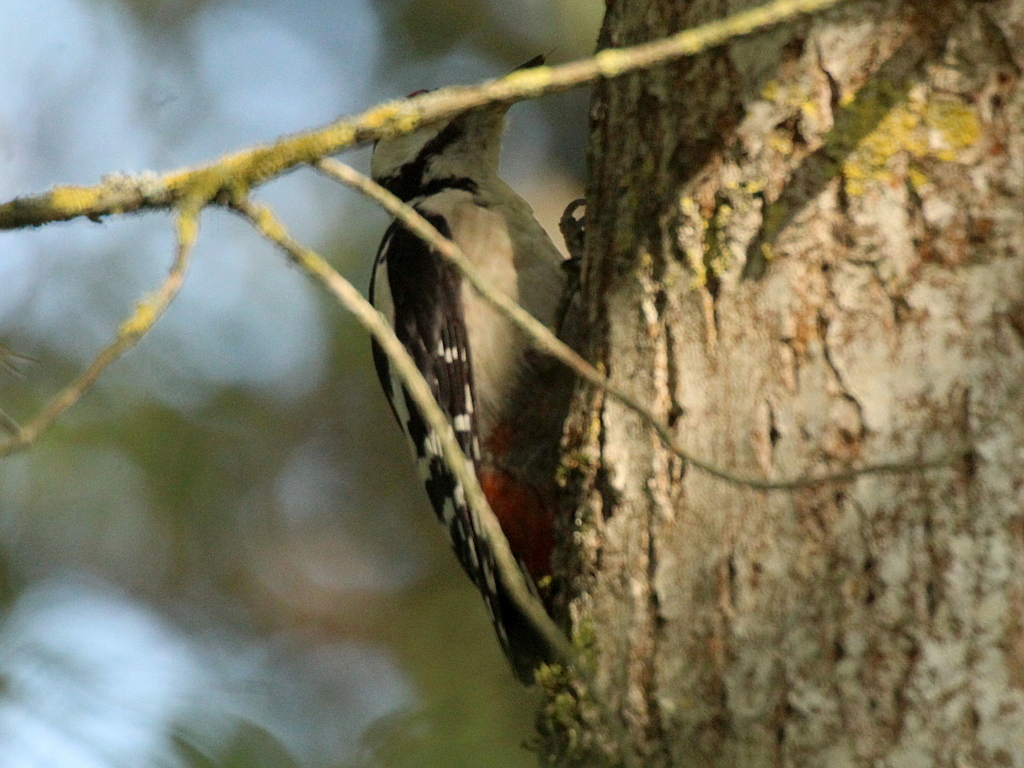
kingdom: Animalia
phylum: Chordata
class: Aves
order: Piciformes
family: Picidae
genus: Dendrocopos
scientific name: Dendrocopos major
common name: Great spotted woodpecker
